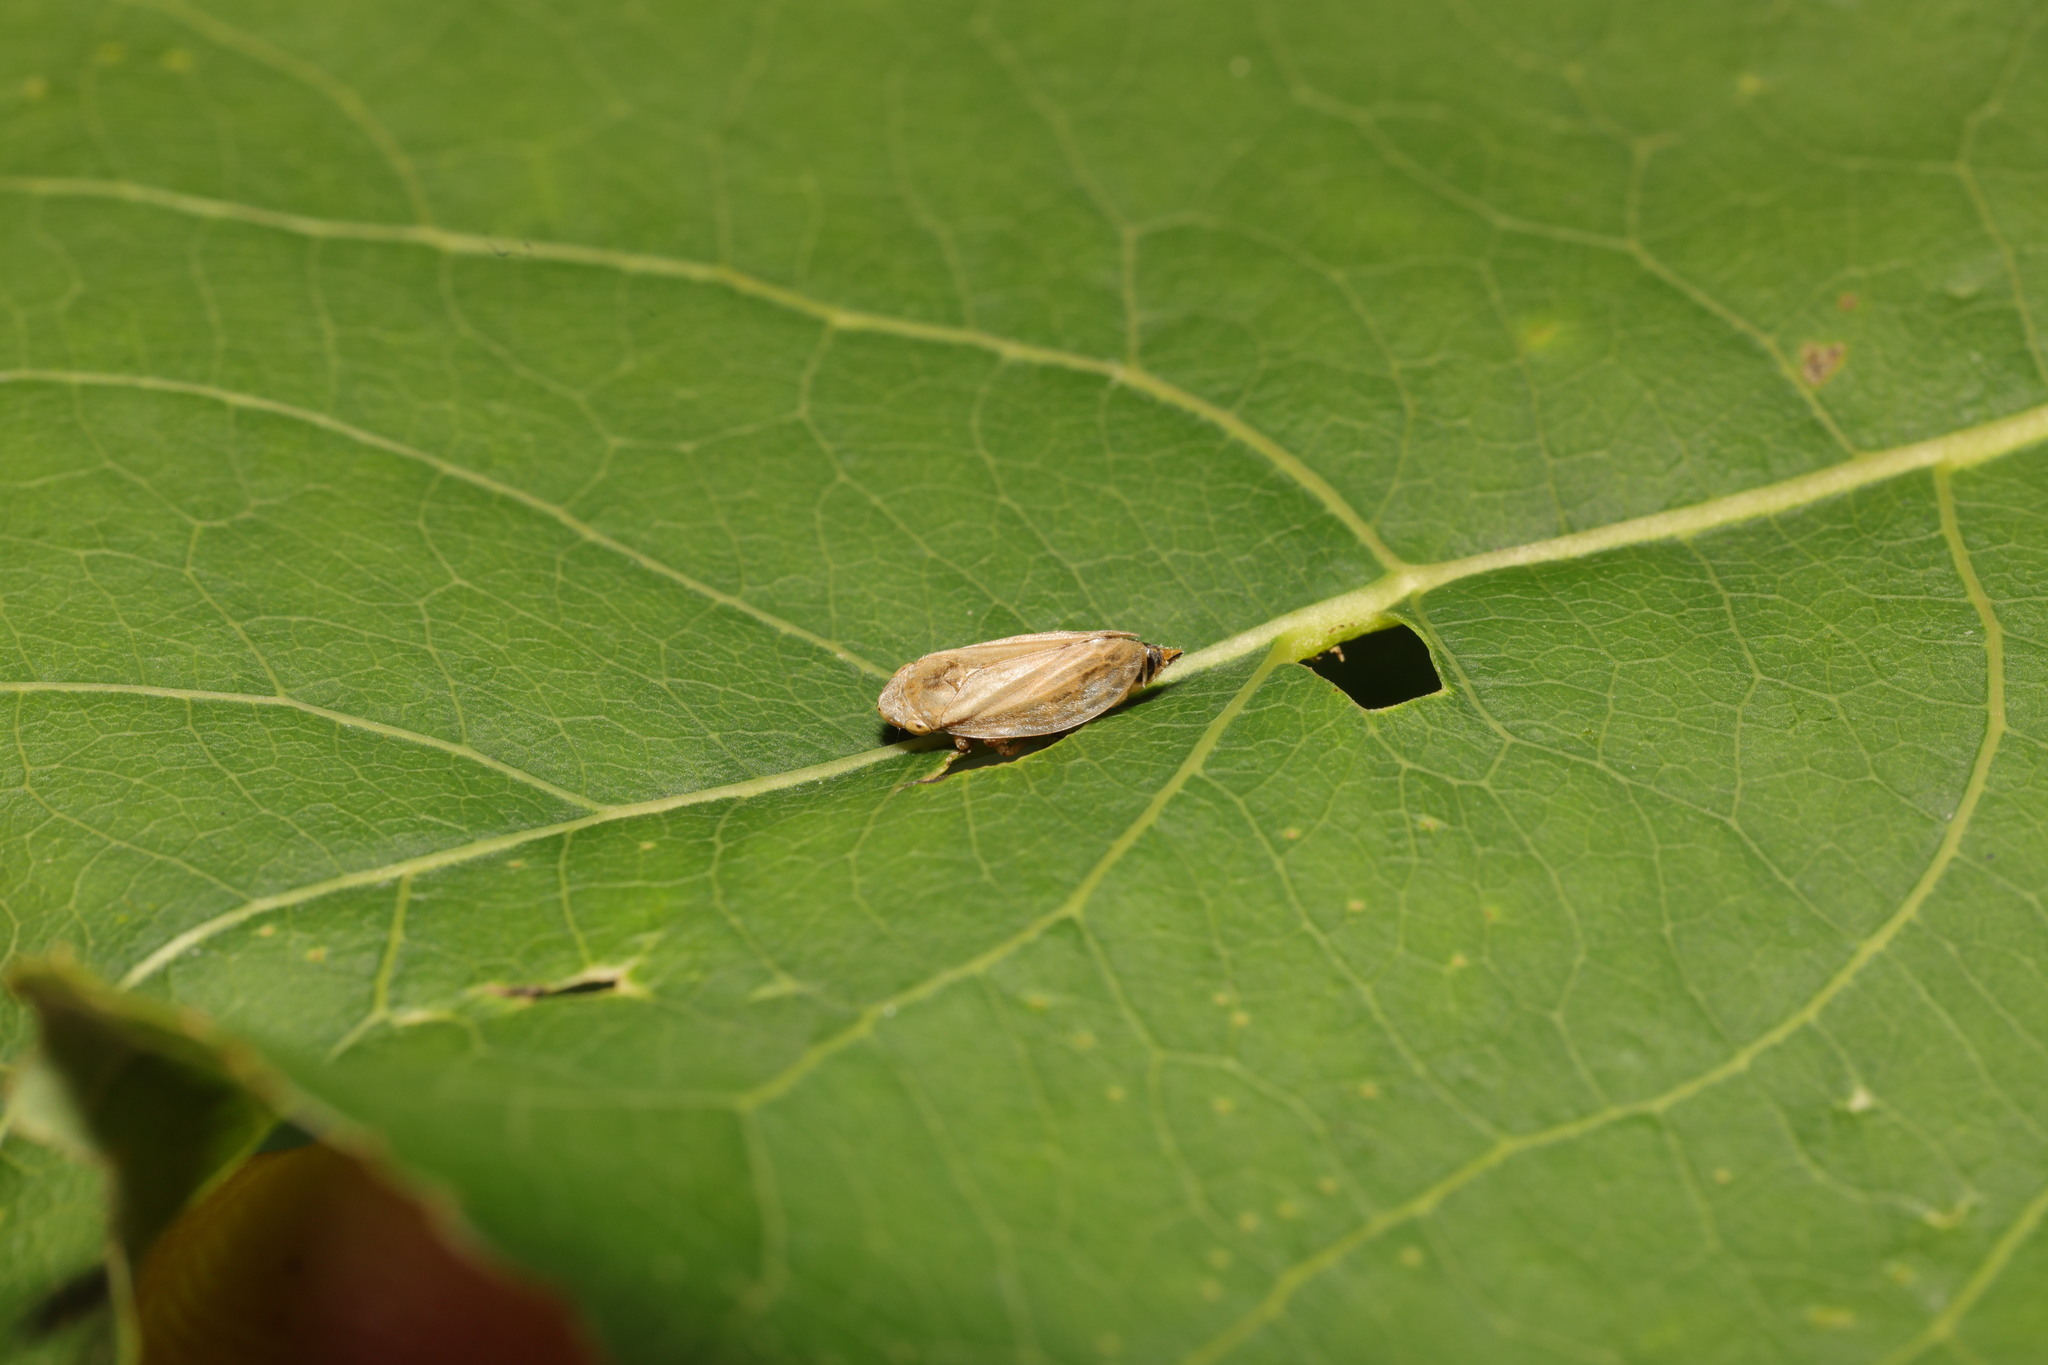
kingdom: Animalia
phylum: Arthropoda
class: Insecta
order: Hemiptera
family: Aphrophoridae
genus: Philaenus
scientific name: Philaenus spumarius
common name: Meadow spittlebug
